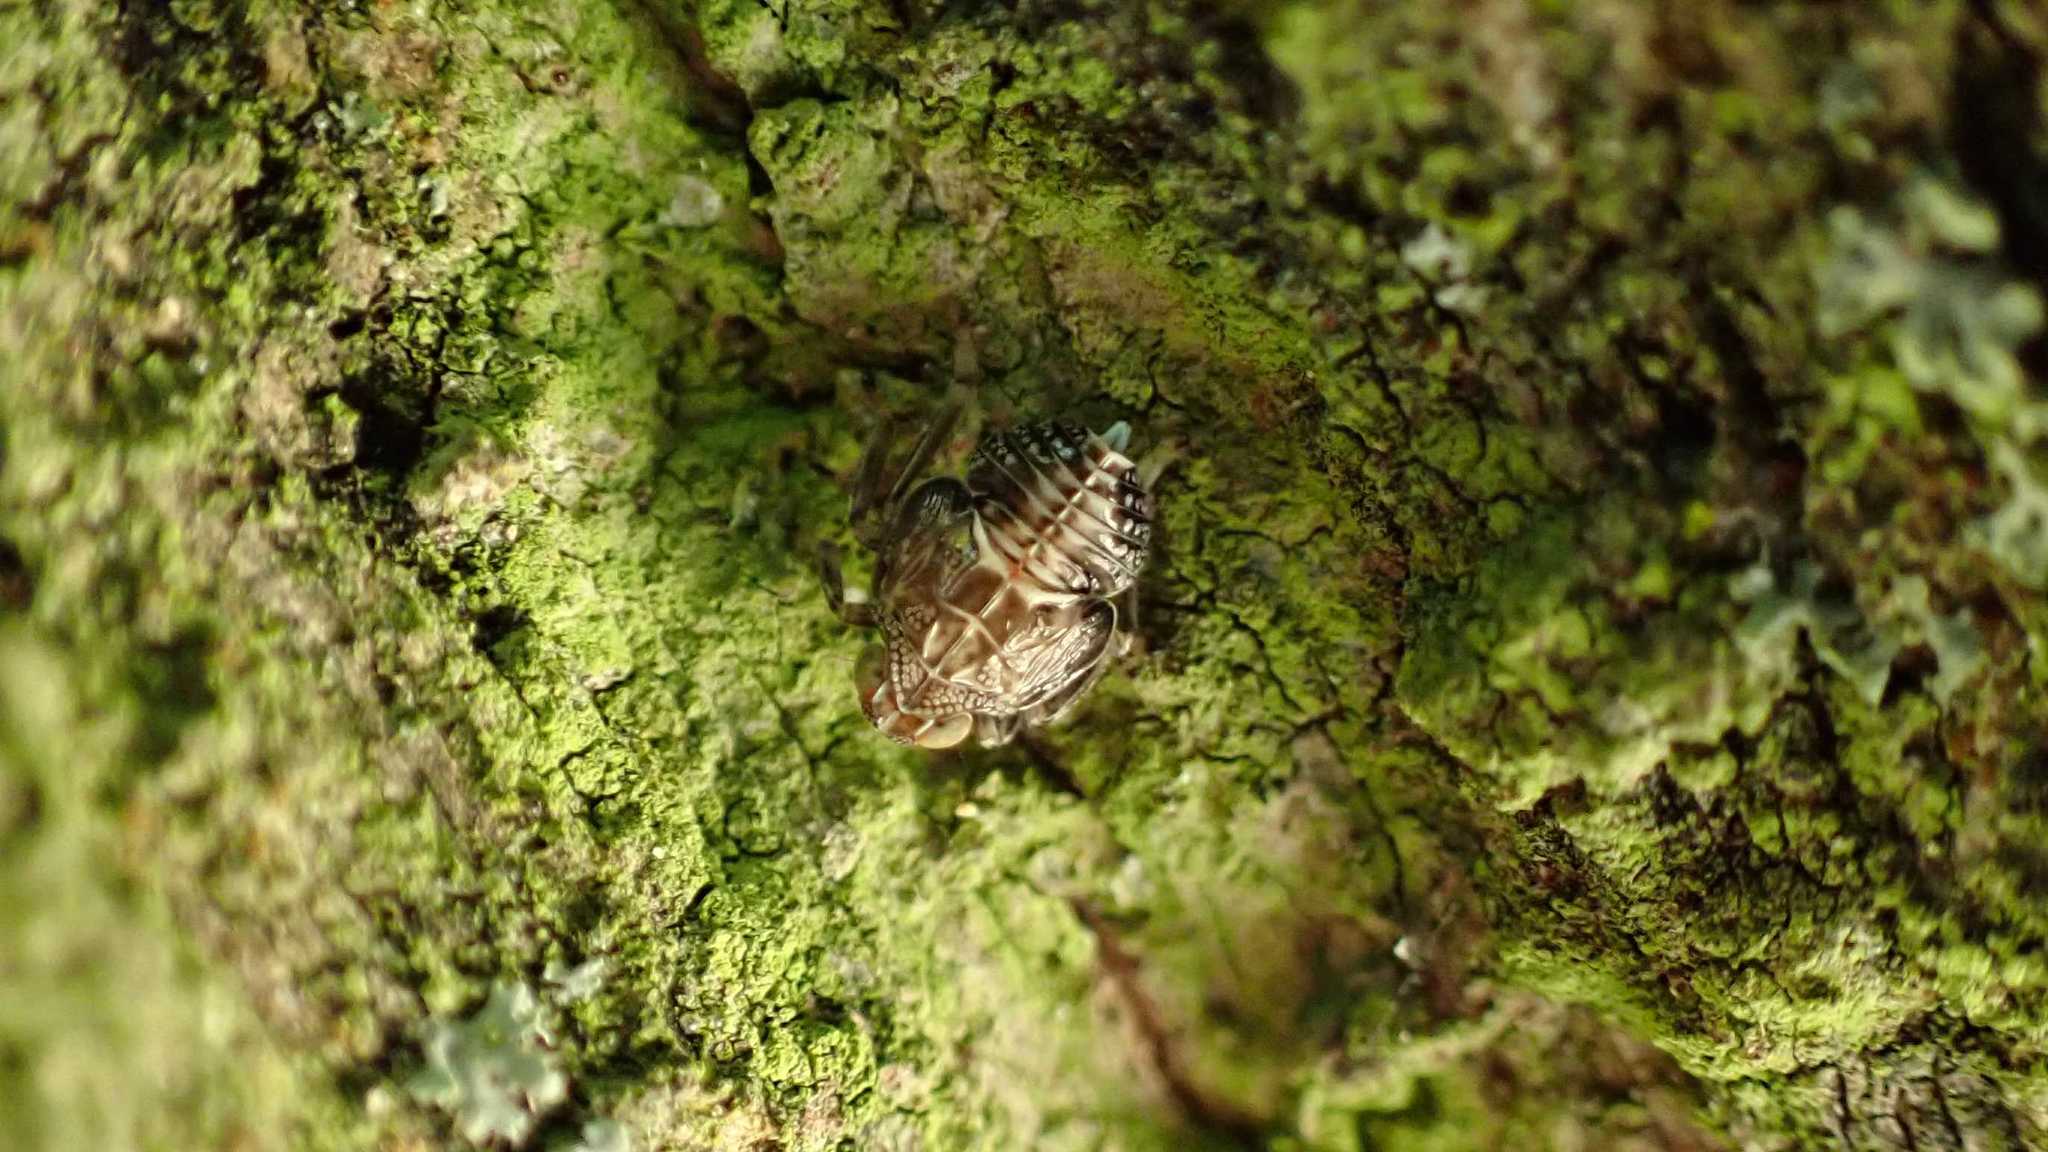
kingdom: Animalia
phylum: Arthropoda
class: Insecta
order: Hemiptera
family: Issidae
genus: Issus
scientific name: Issus coleoptratus
